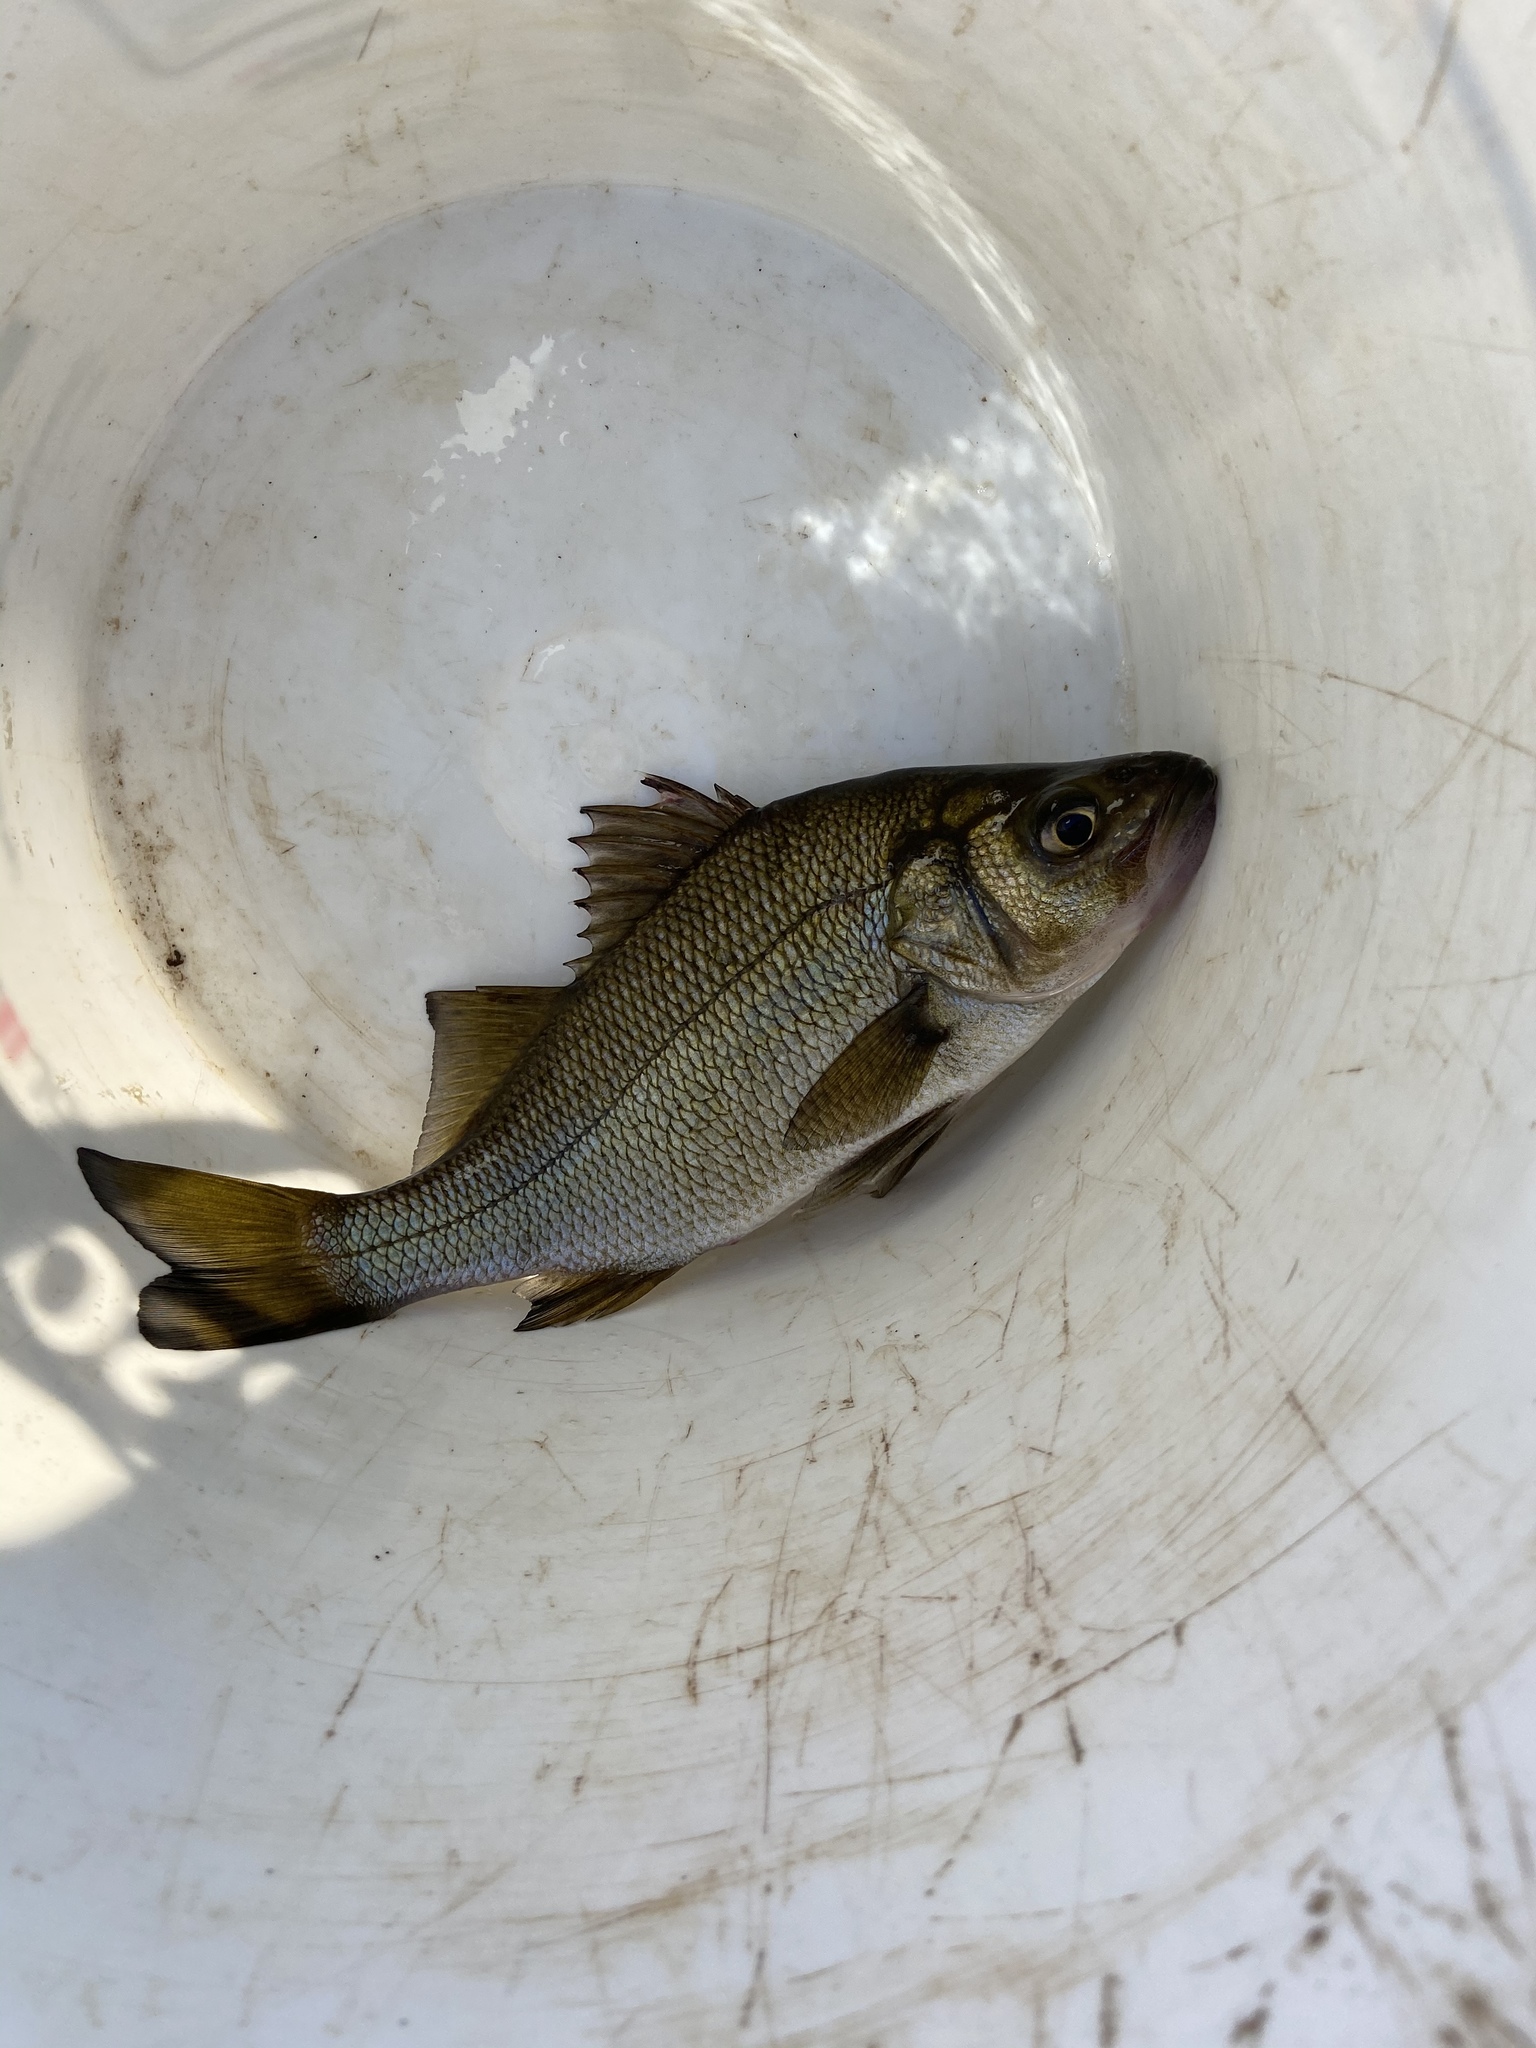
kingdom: Animalia
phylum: Chordata
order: Perciformes
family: Moronidae
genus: Morone
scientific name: Morone americana
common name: White perch
